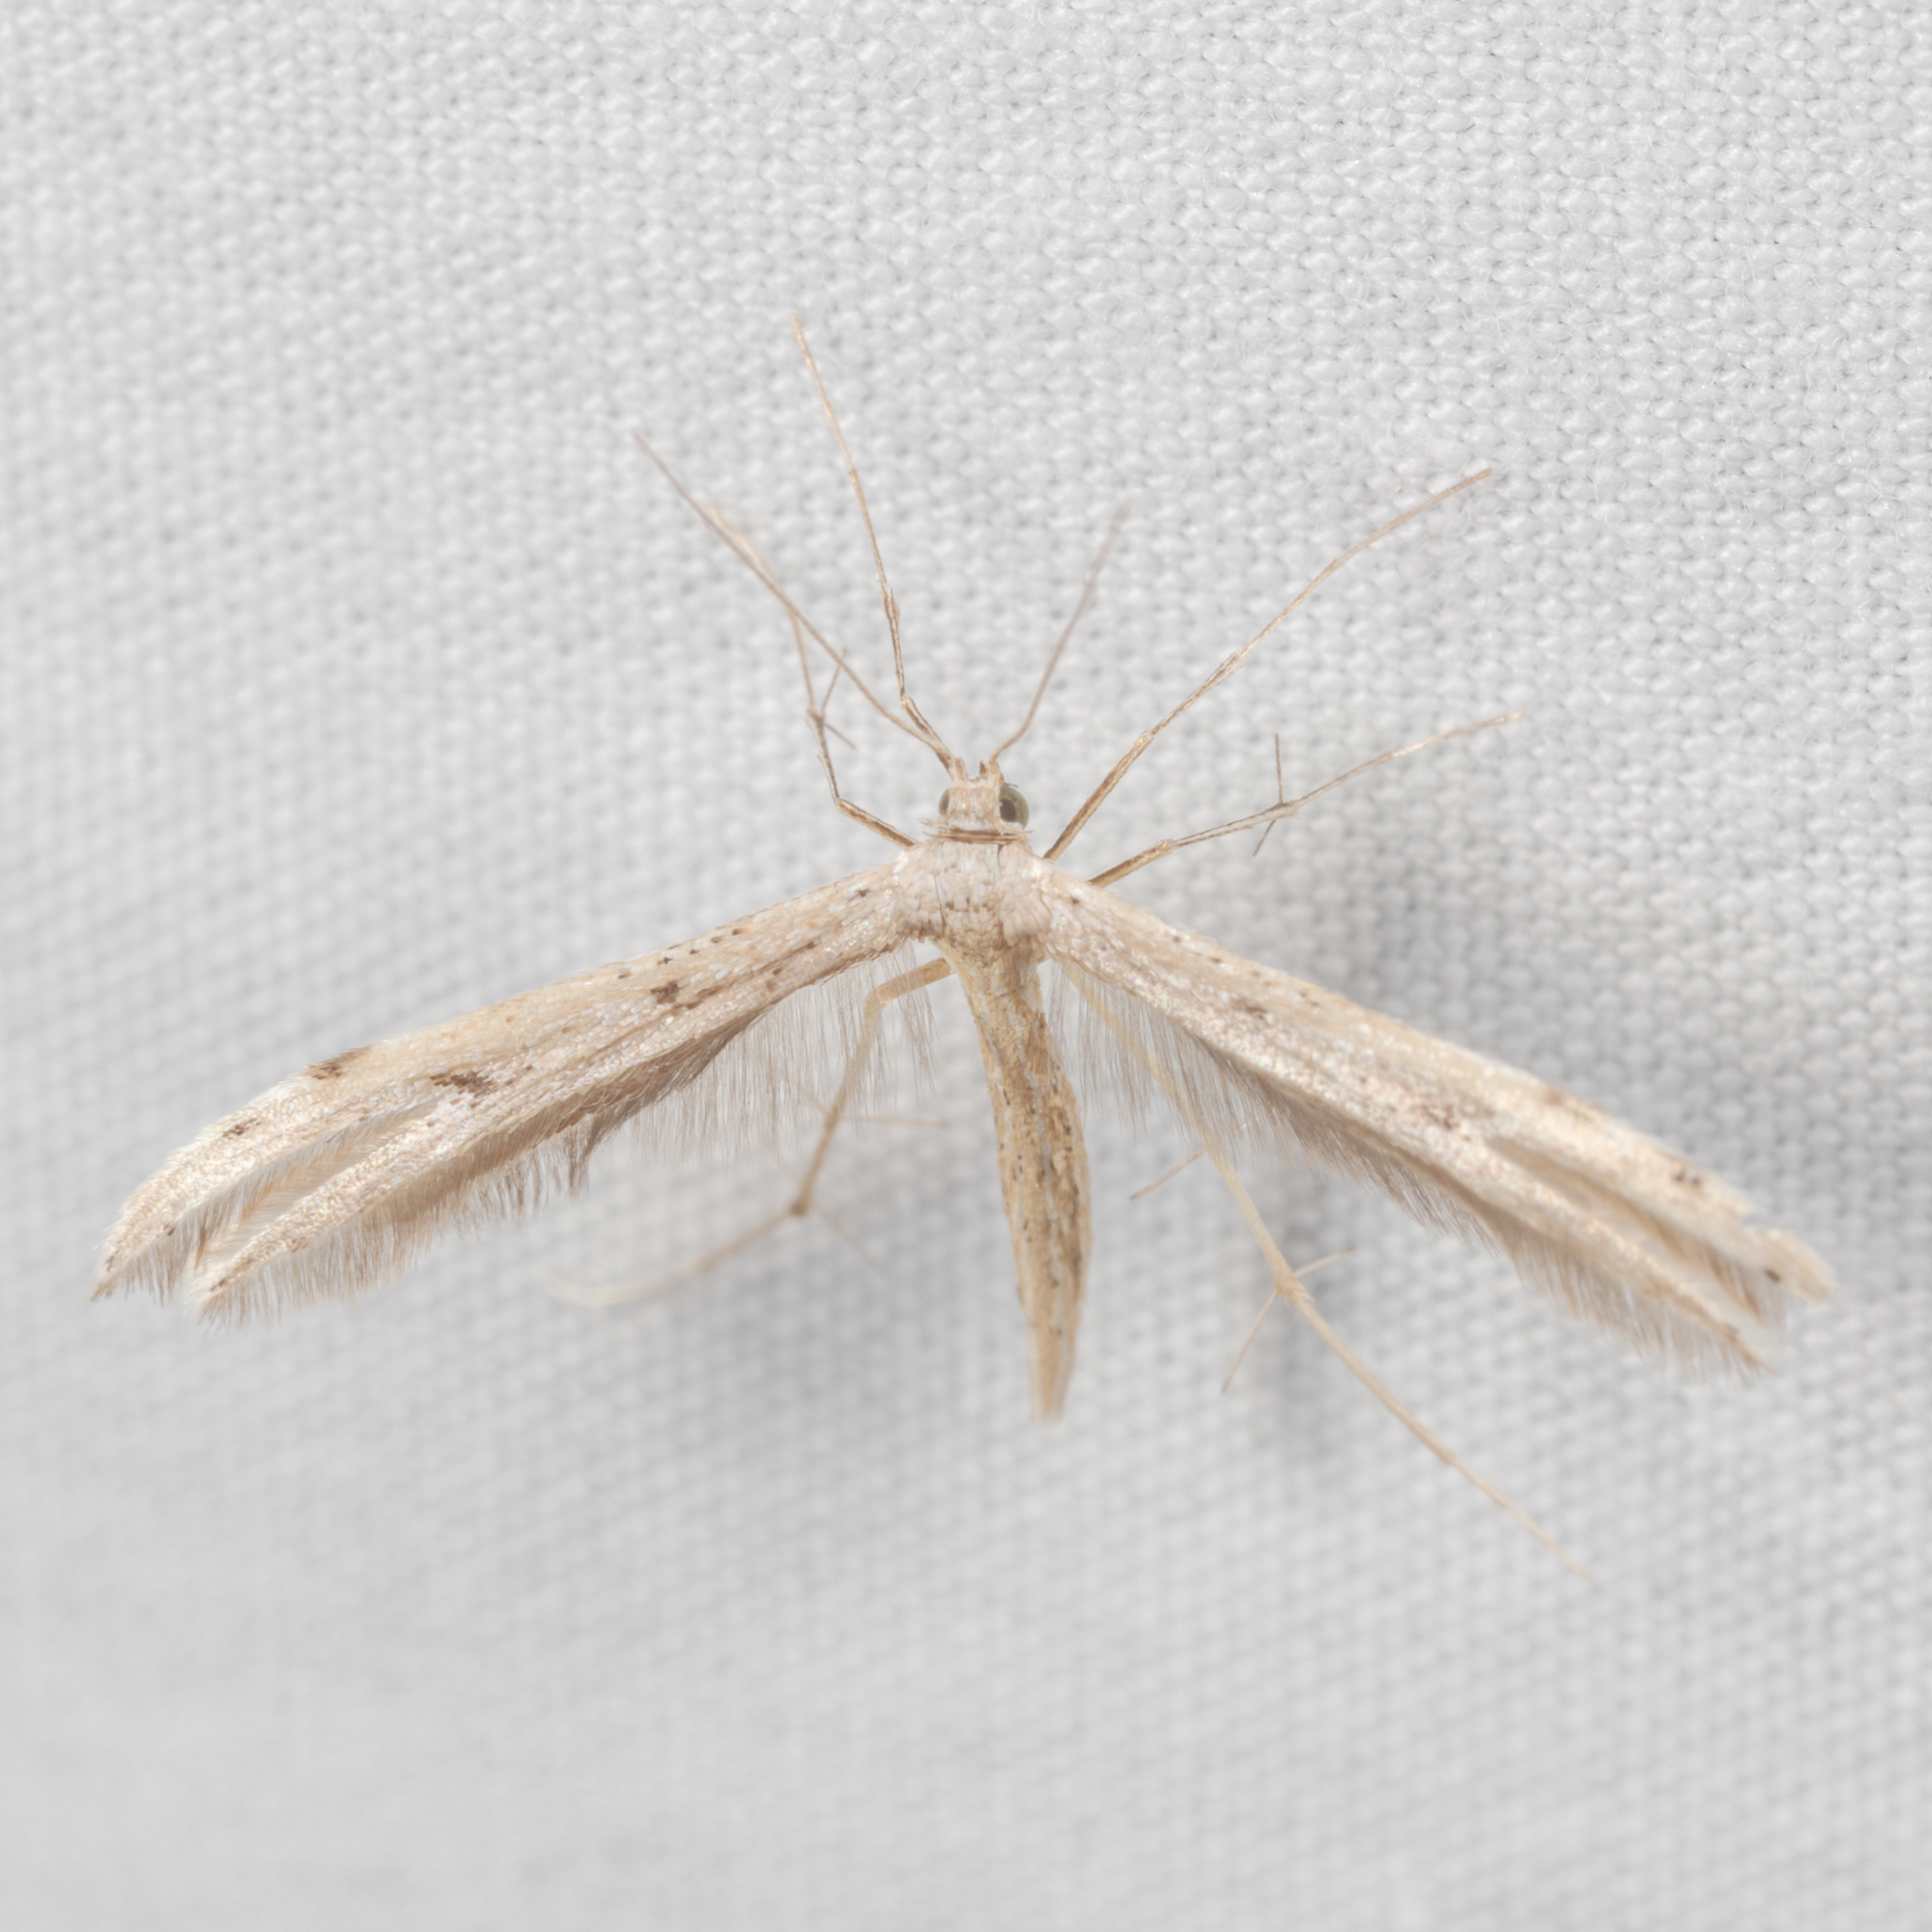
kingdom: Animalia
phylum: Arthropoda
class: Insecta
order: Lepidoptera
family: Pterophoridae
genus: Pselnophorus
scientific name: Pselnophorus belfragei
